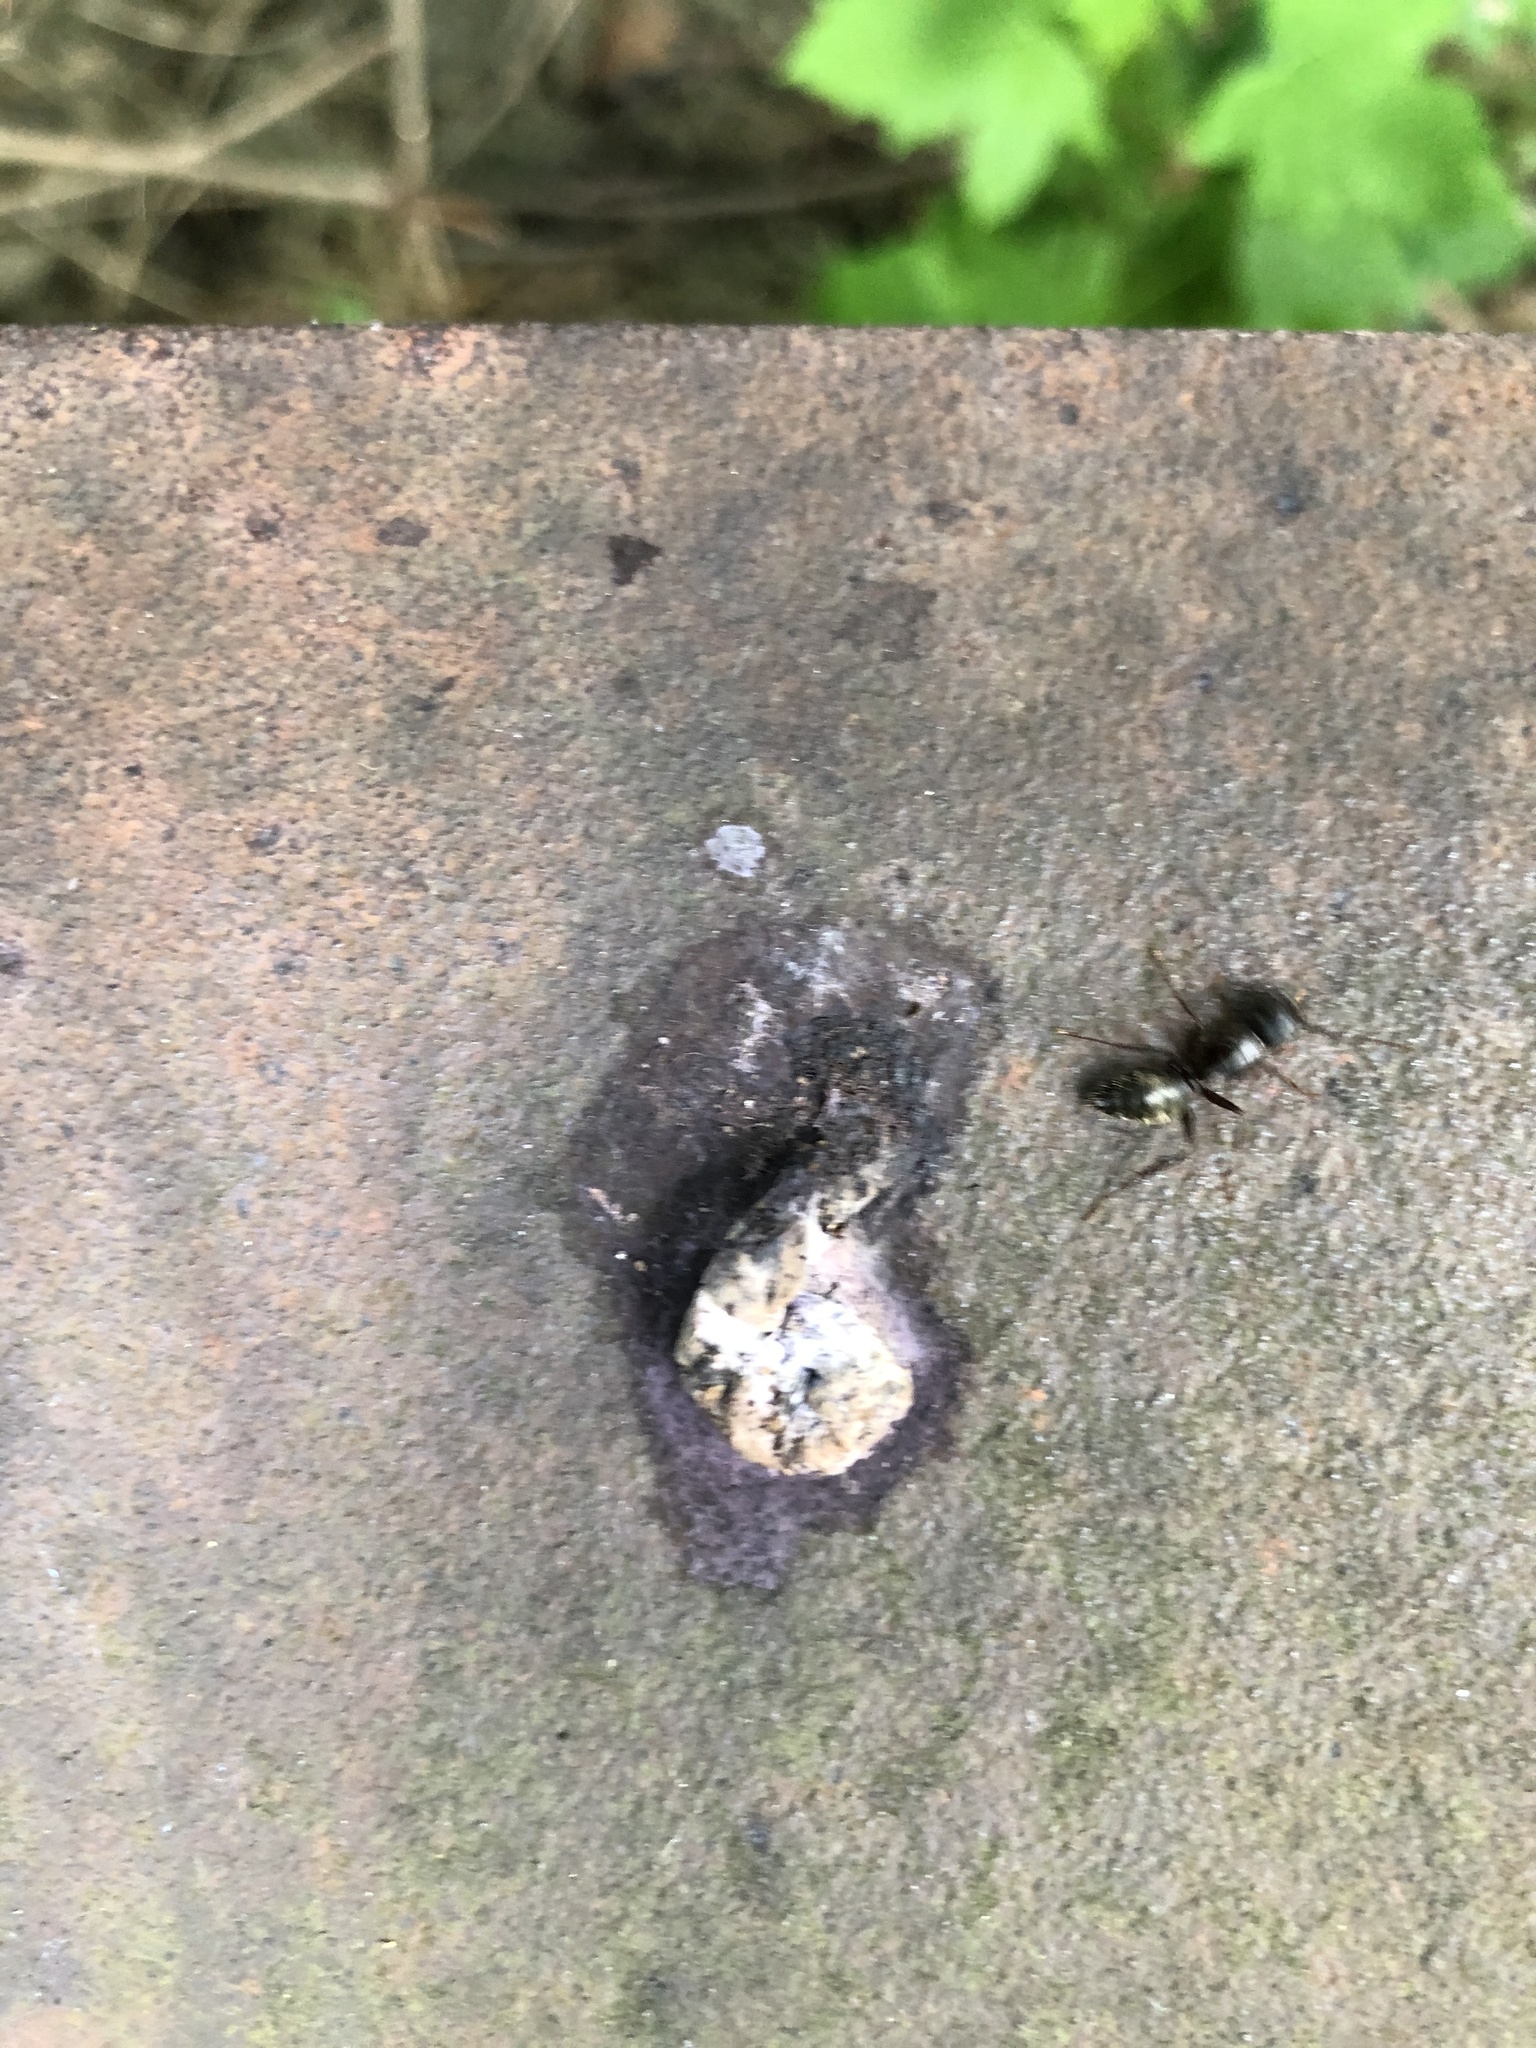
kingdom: Animalia
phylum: Arthropoda
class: Insecta
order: Hymenoptera
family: Formicidae
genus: Camponotus
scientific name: Camponotus pennsylvanicus
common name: Black carpenter ant
